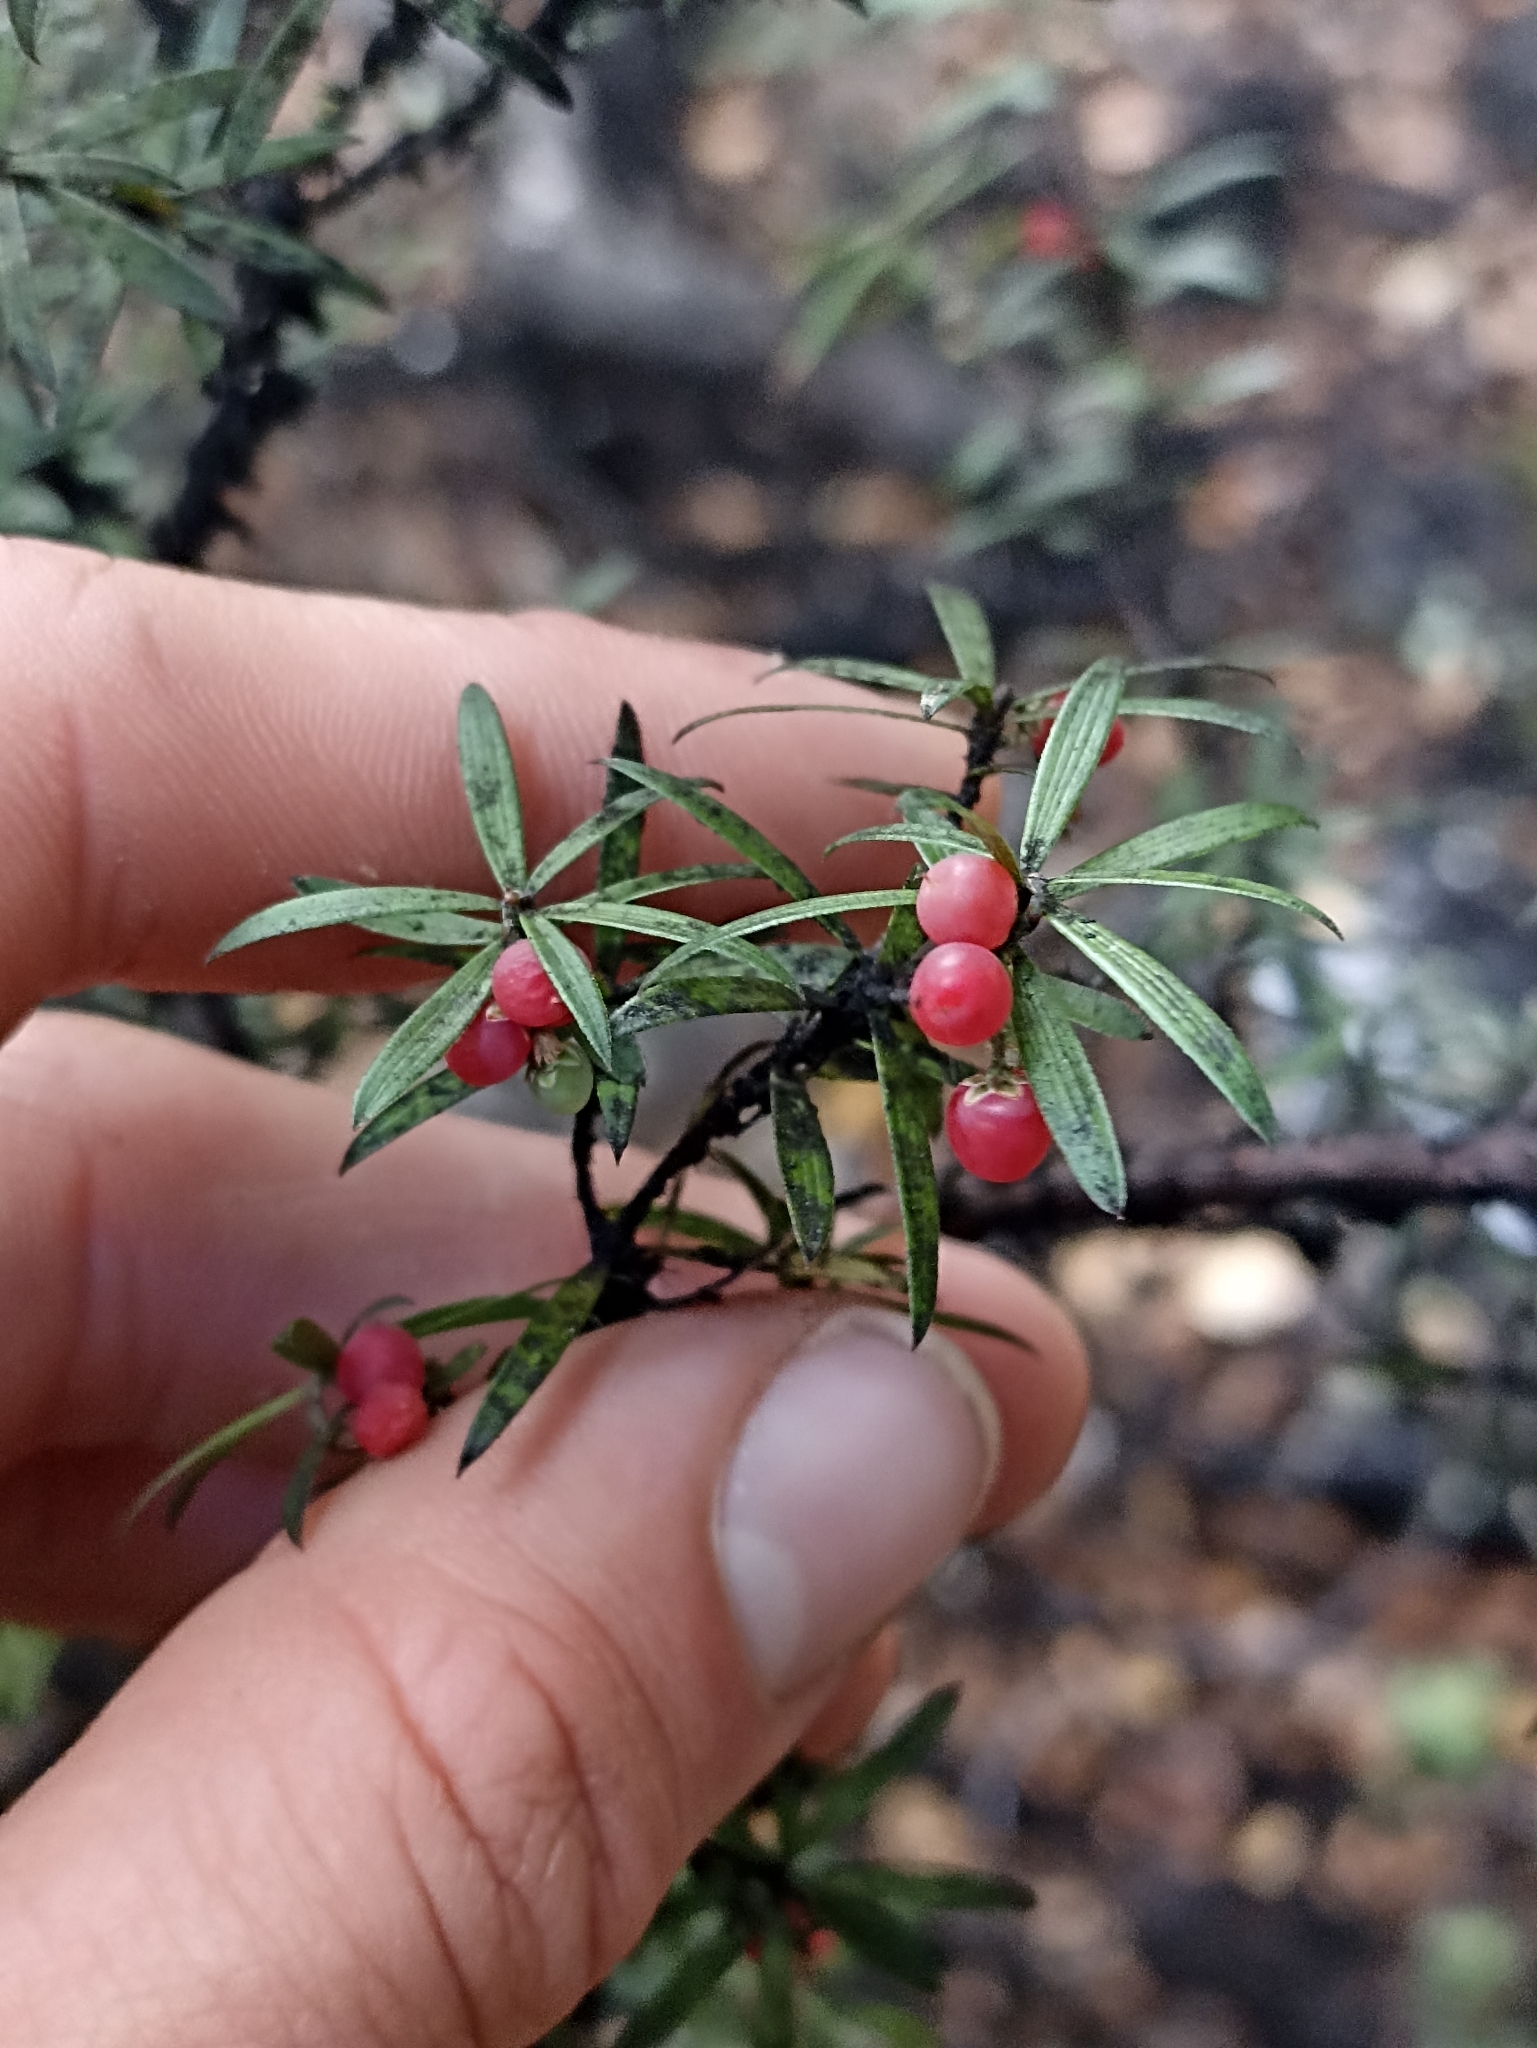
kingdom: Plantae
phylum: Tracheophyta
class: Magnoliopsida
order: Ericales
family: Ericaceae
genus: Leucopogon
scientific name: Leucopogon fasciculatus
